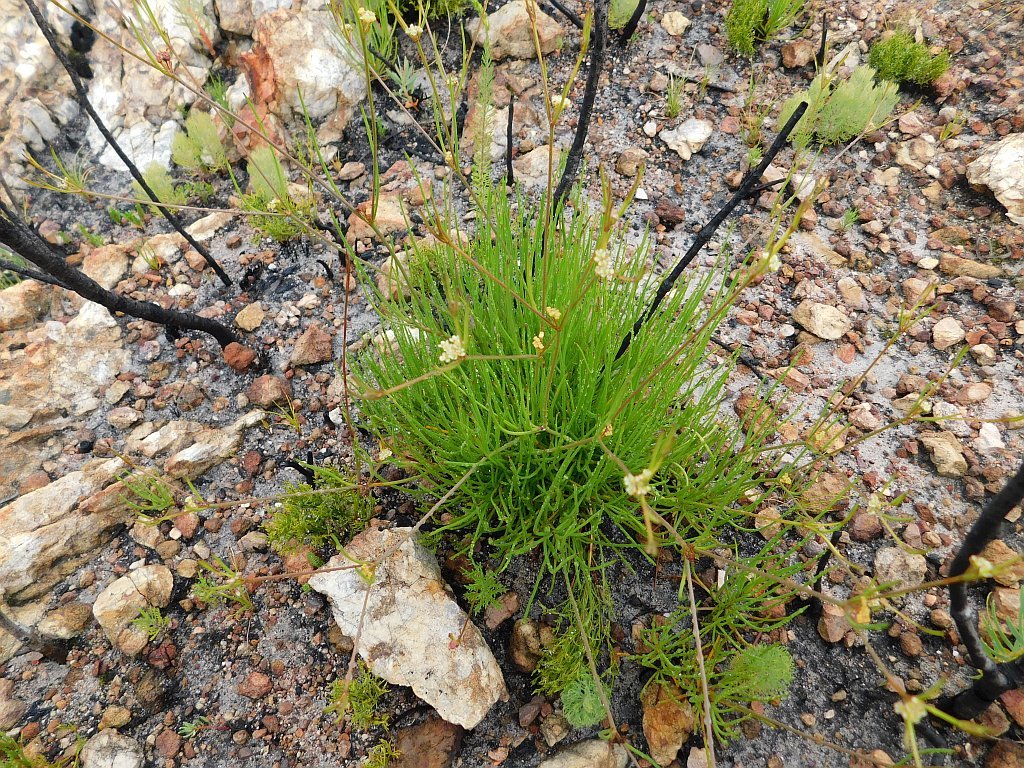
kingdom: Plantae
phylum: Tracheophyta
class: Magnoliopsida
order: Apiales
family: Apiaceae
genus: Centella
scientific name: Centella thesioides
